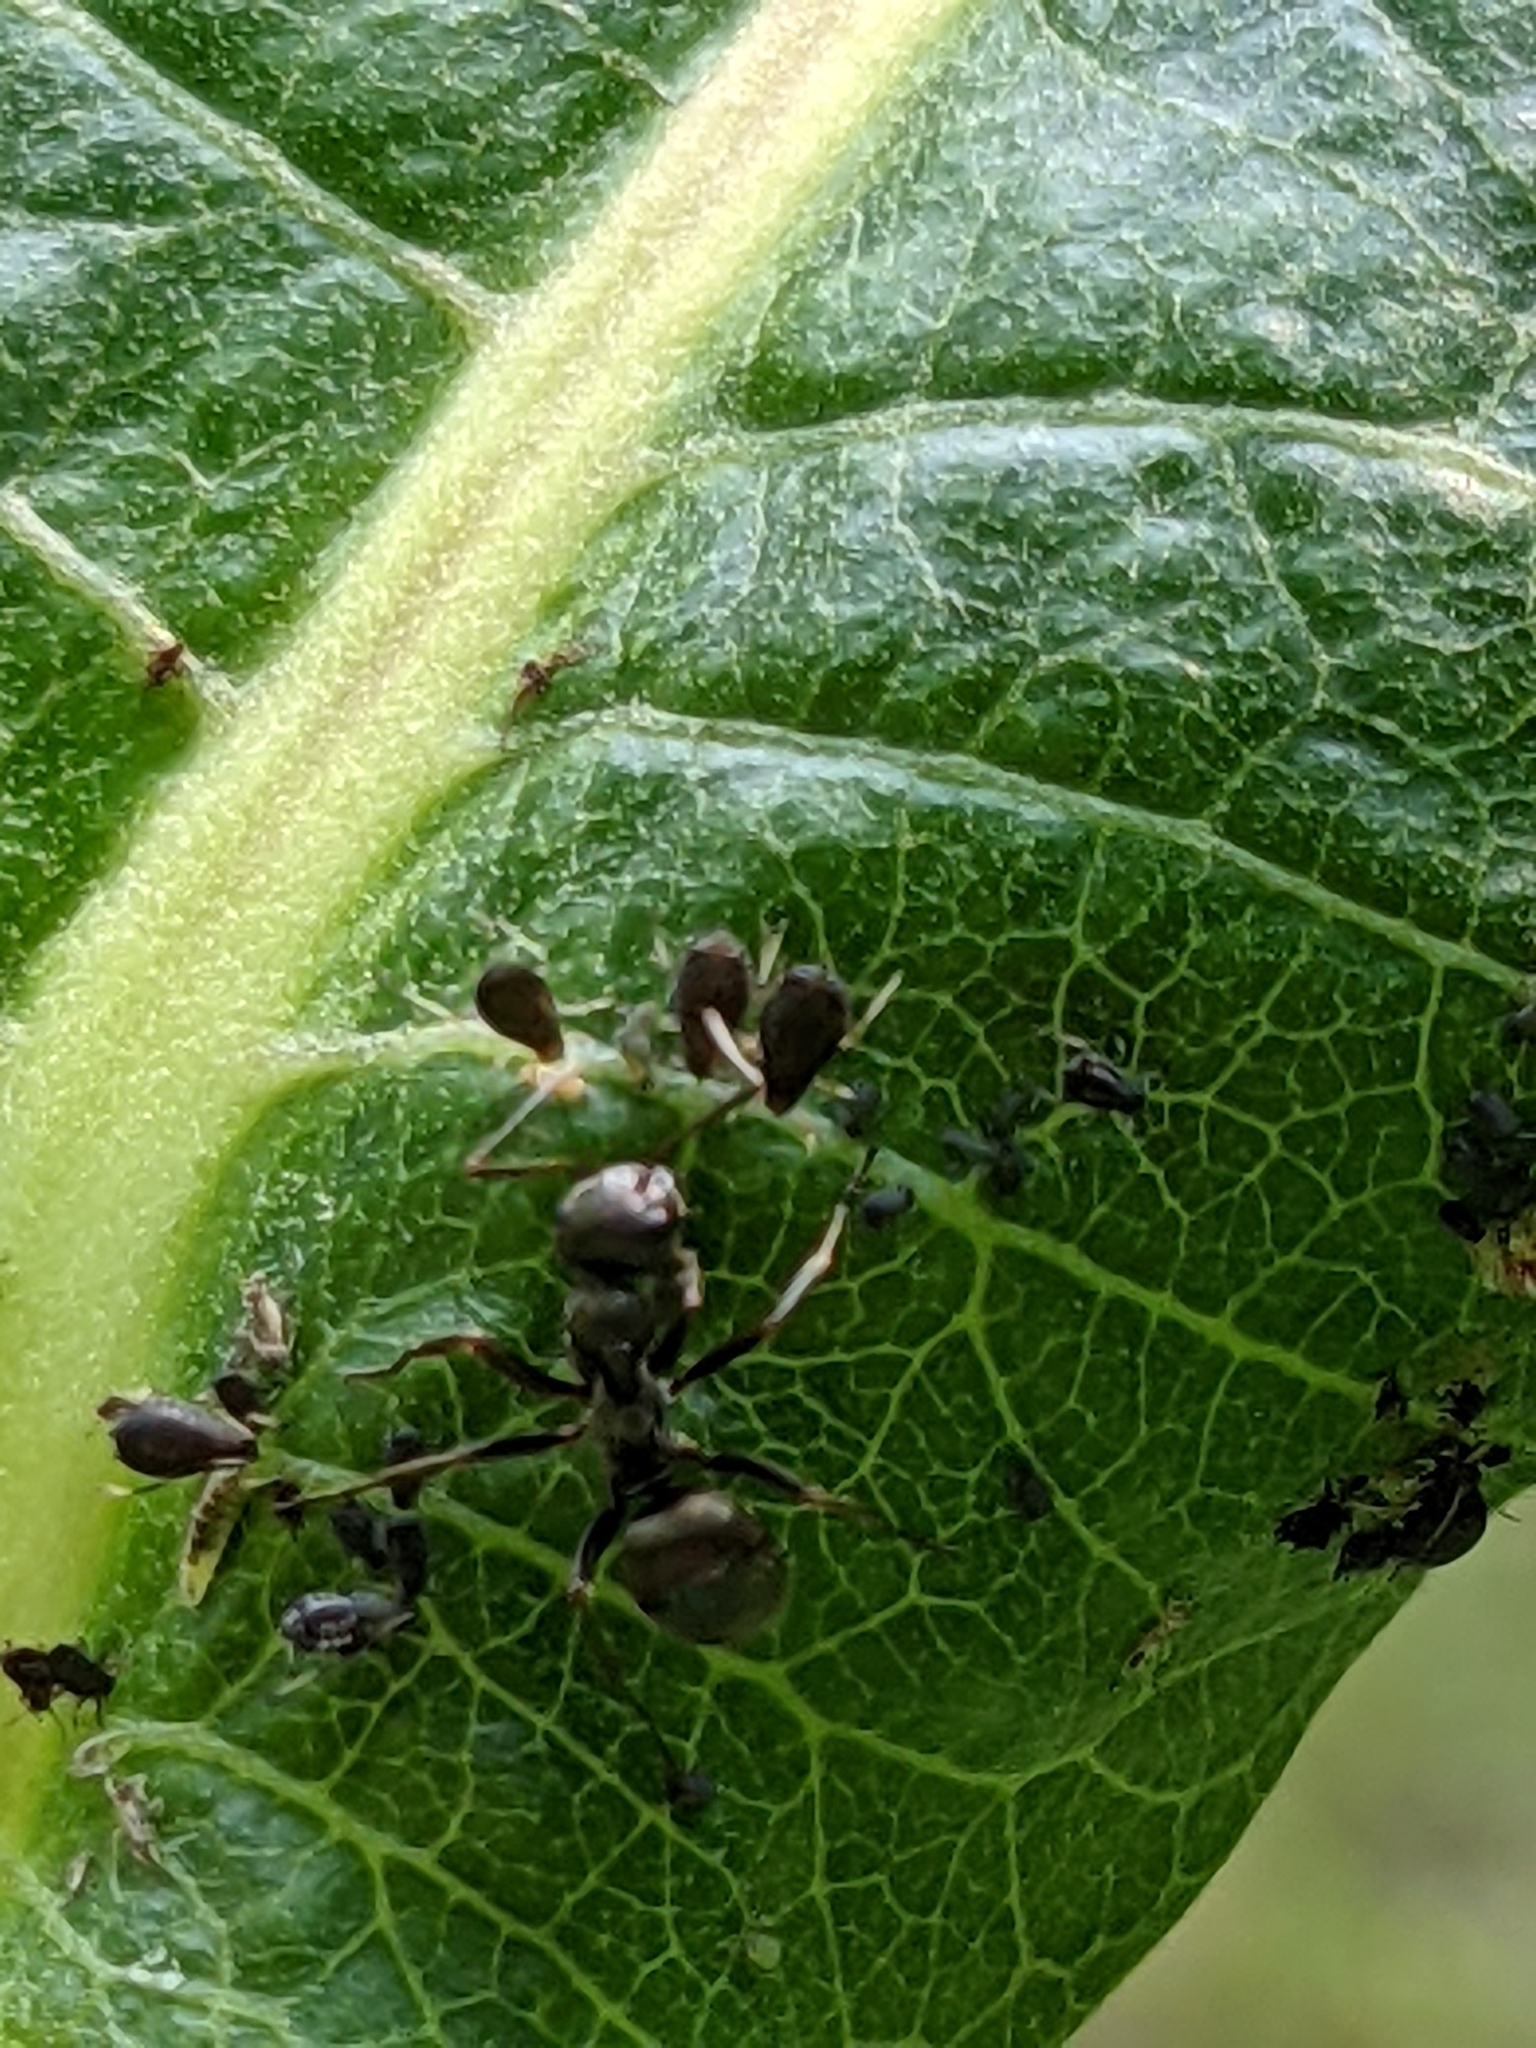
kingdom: Animalia
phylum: Arthropoda
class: Insecta
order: Hymenoptera
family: Formicidae
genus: Formica
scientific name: Formica
